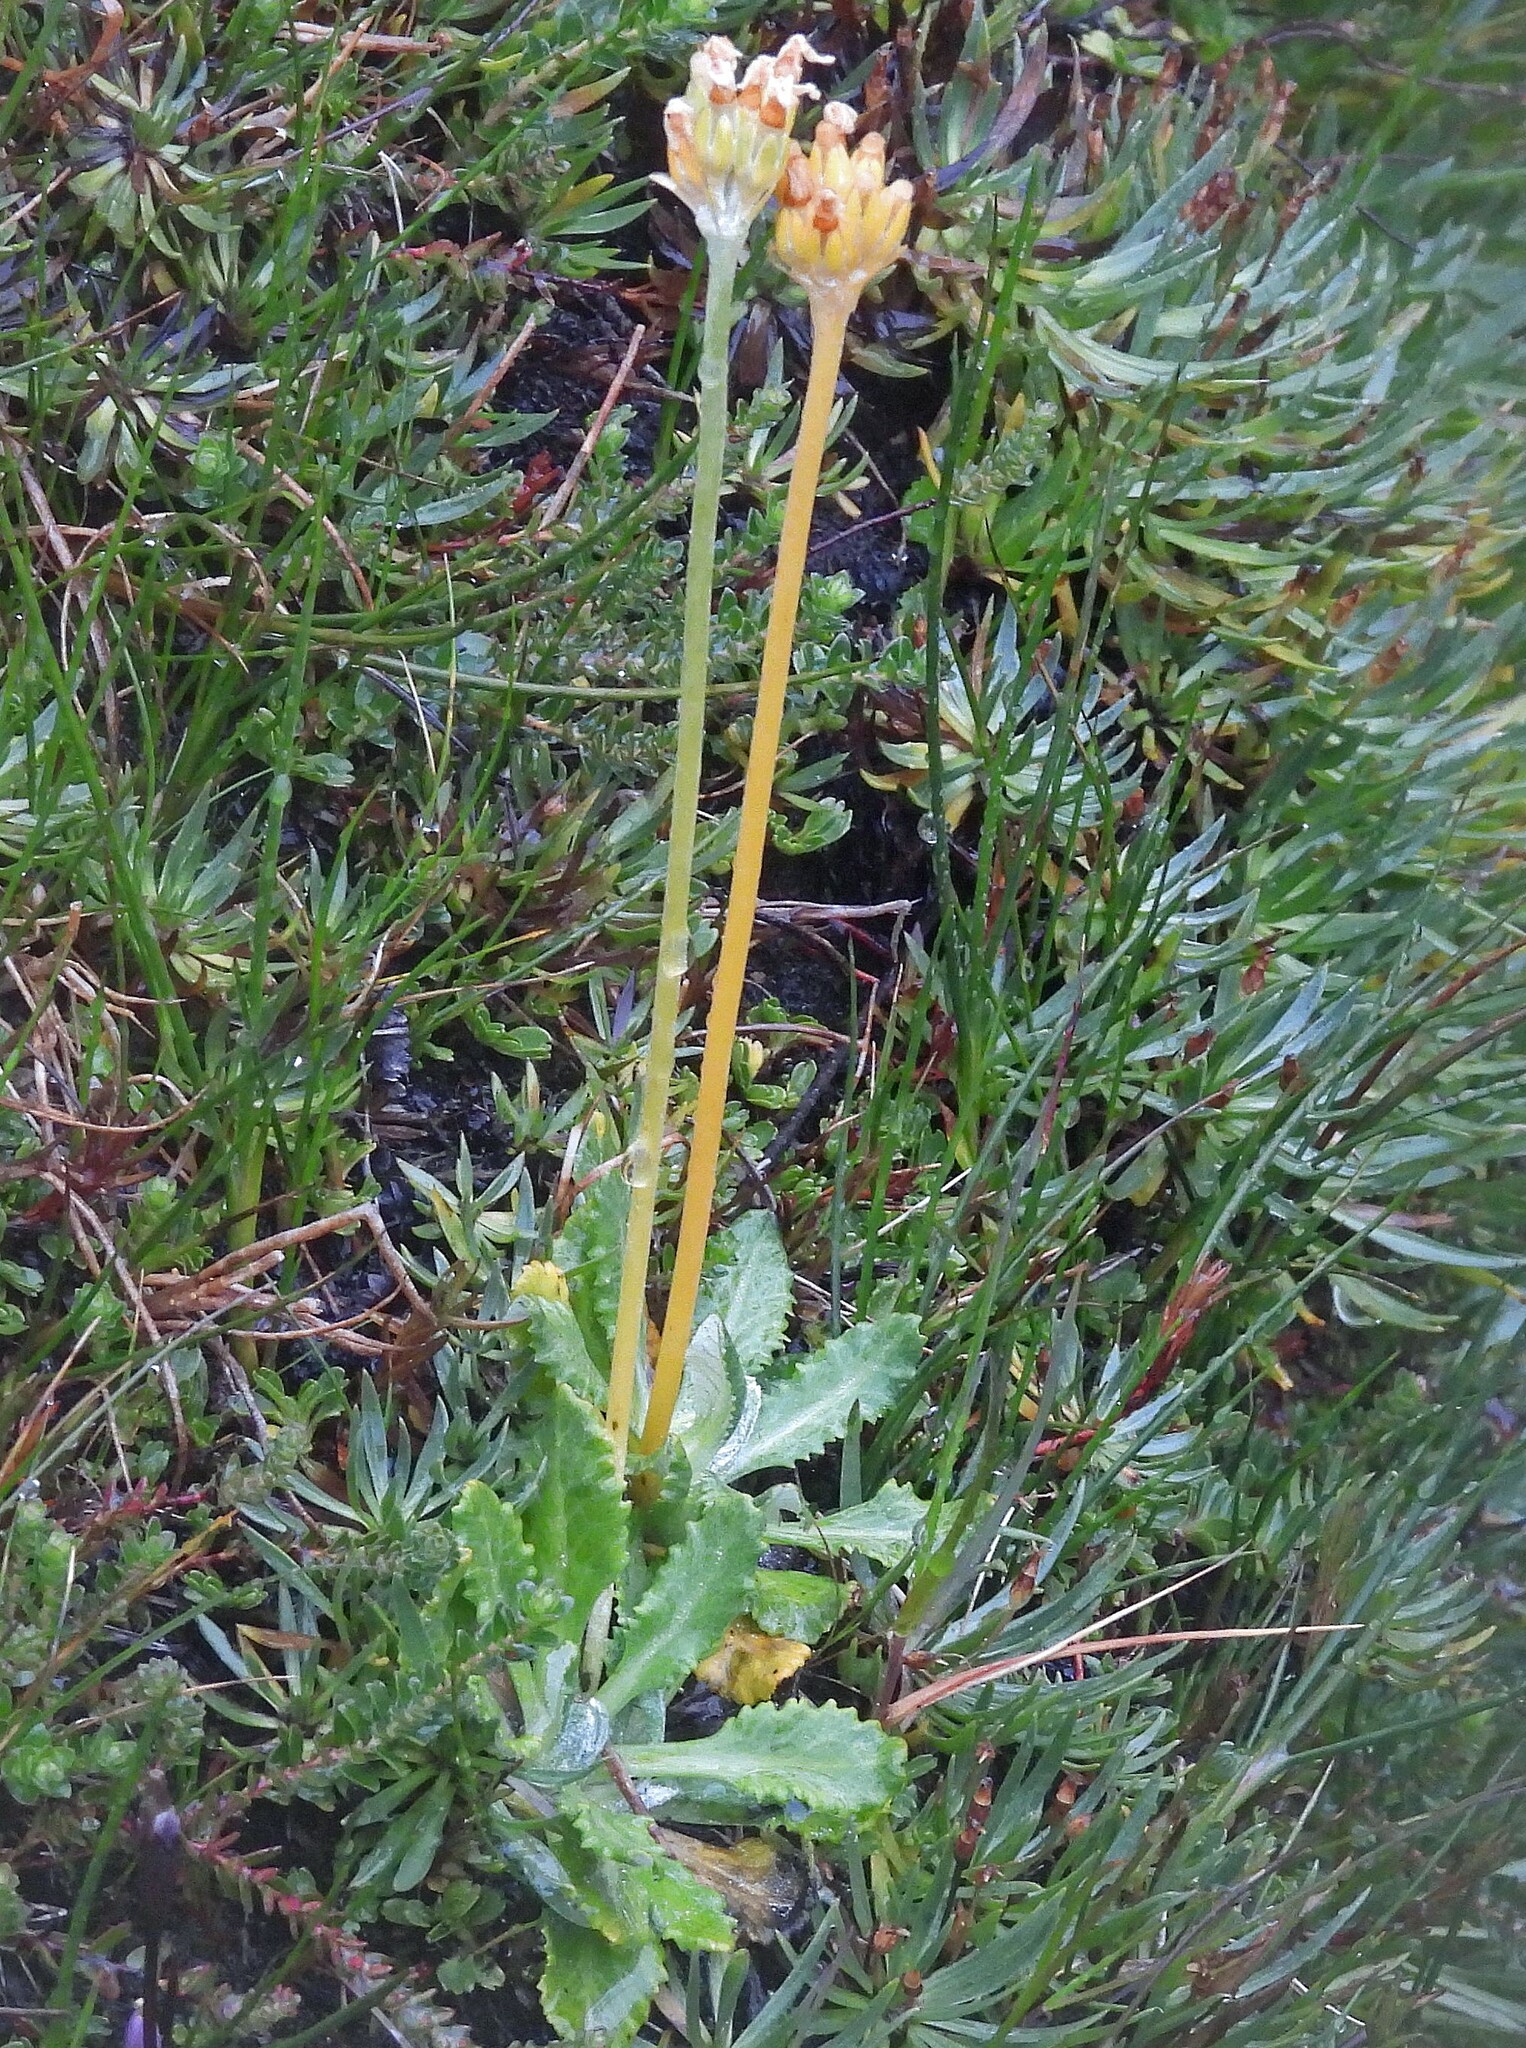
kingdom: Plantae
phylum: Tracheophyta
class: Magnoliopsida
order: Ericales
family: Primulaceae
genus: Primula
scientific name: Primula magellanica
